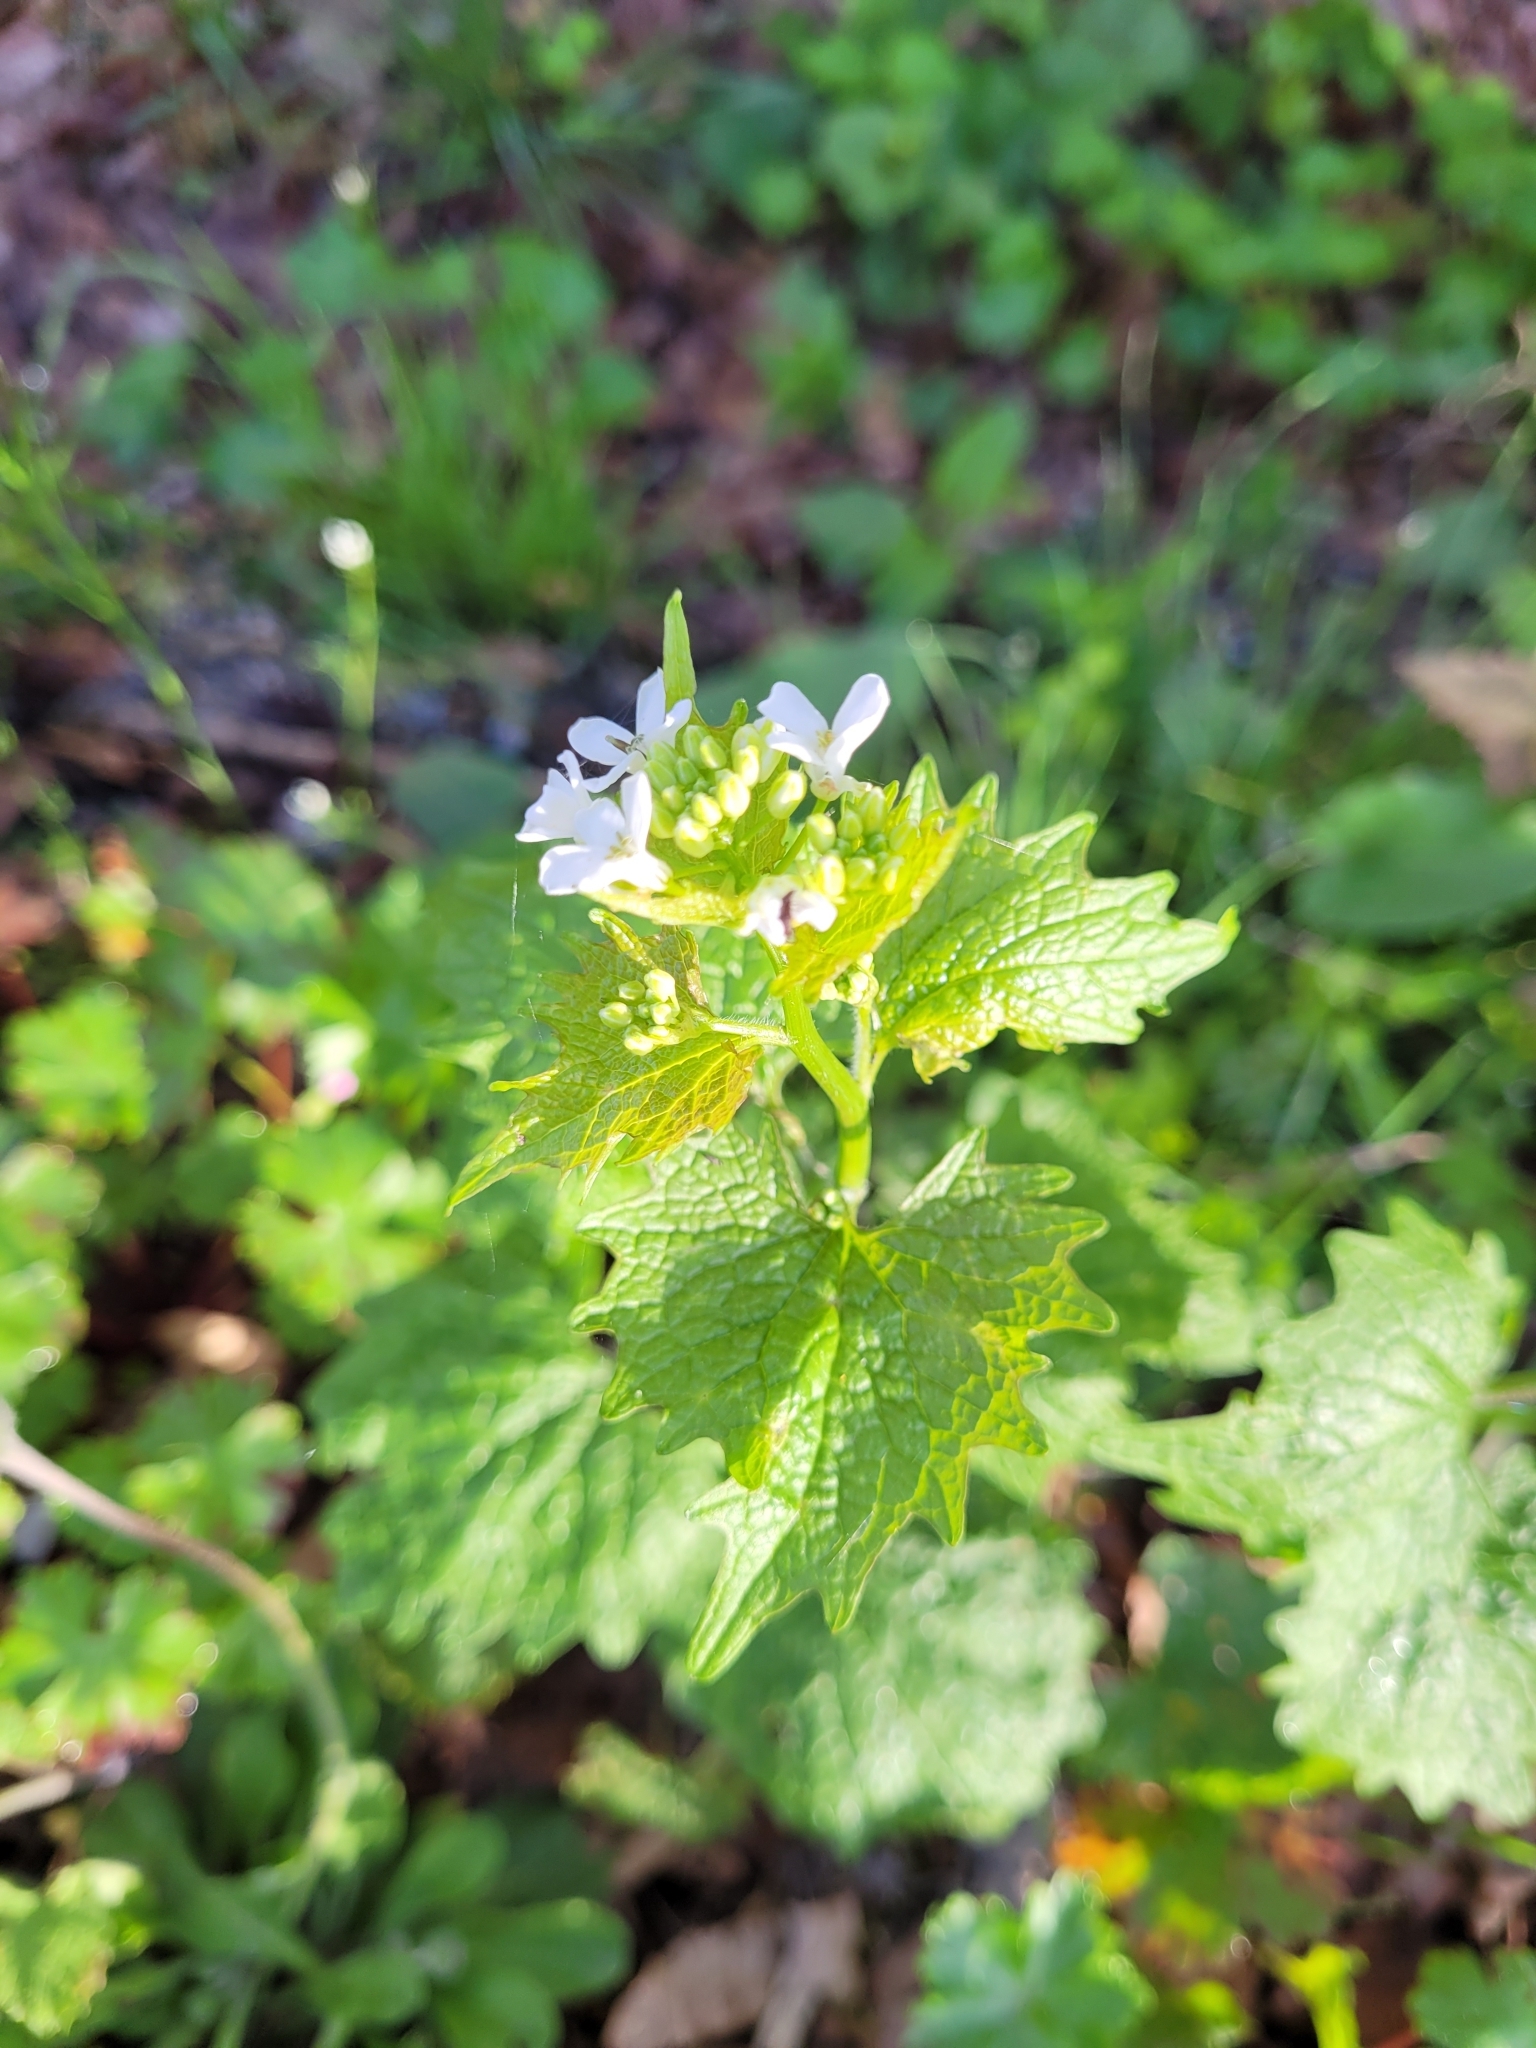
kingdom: Plantae
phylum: Tracheophyta
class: Magnoliopsida
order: Brassicales
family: Brassicaceae
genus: Alliaria
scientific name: Alliaria petiolata
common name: Garlic mustard
